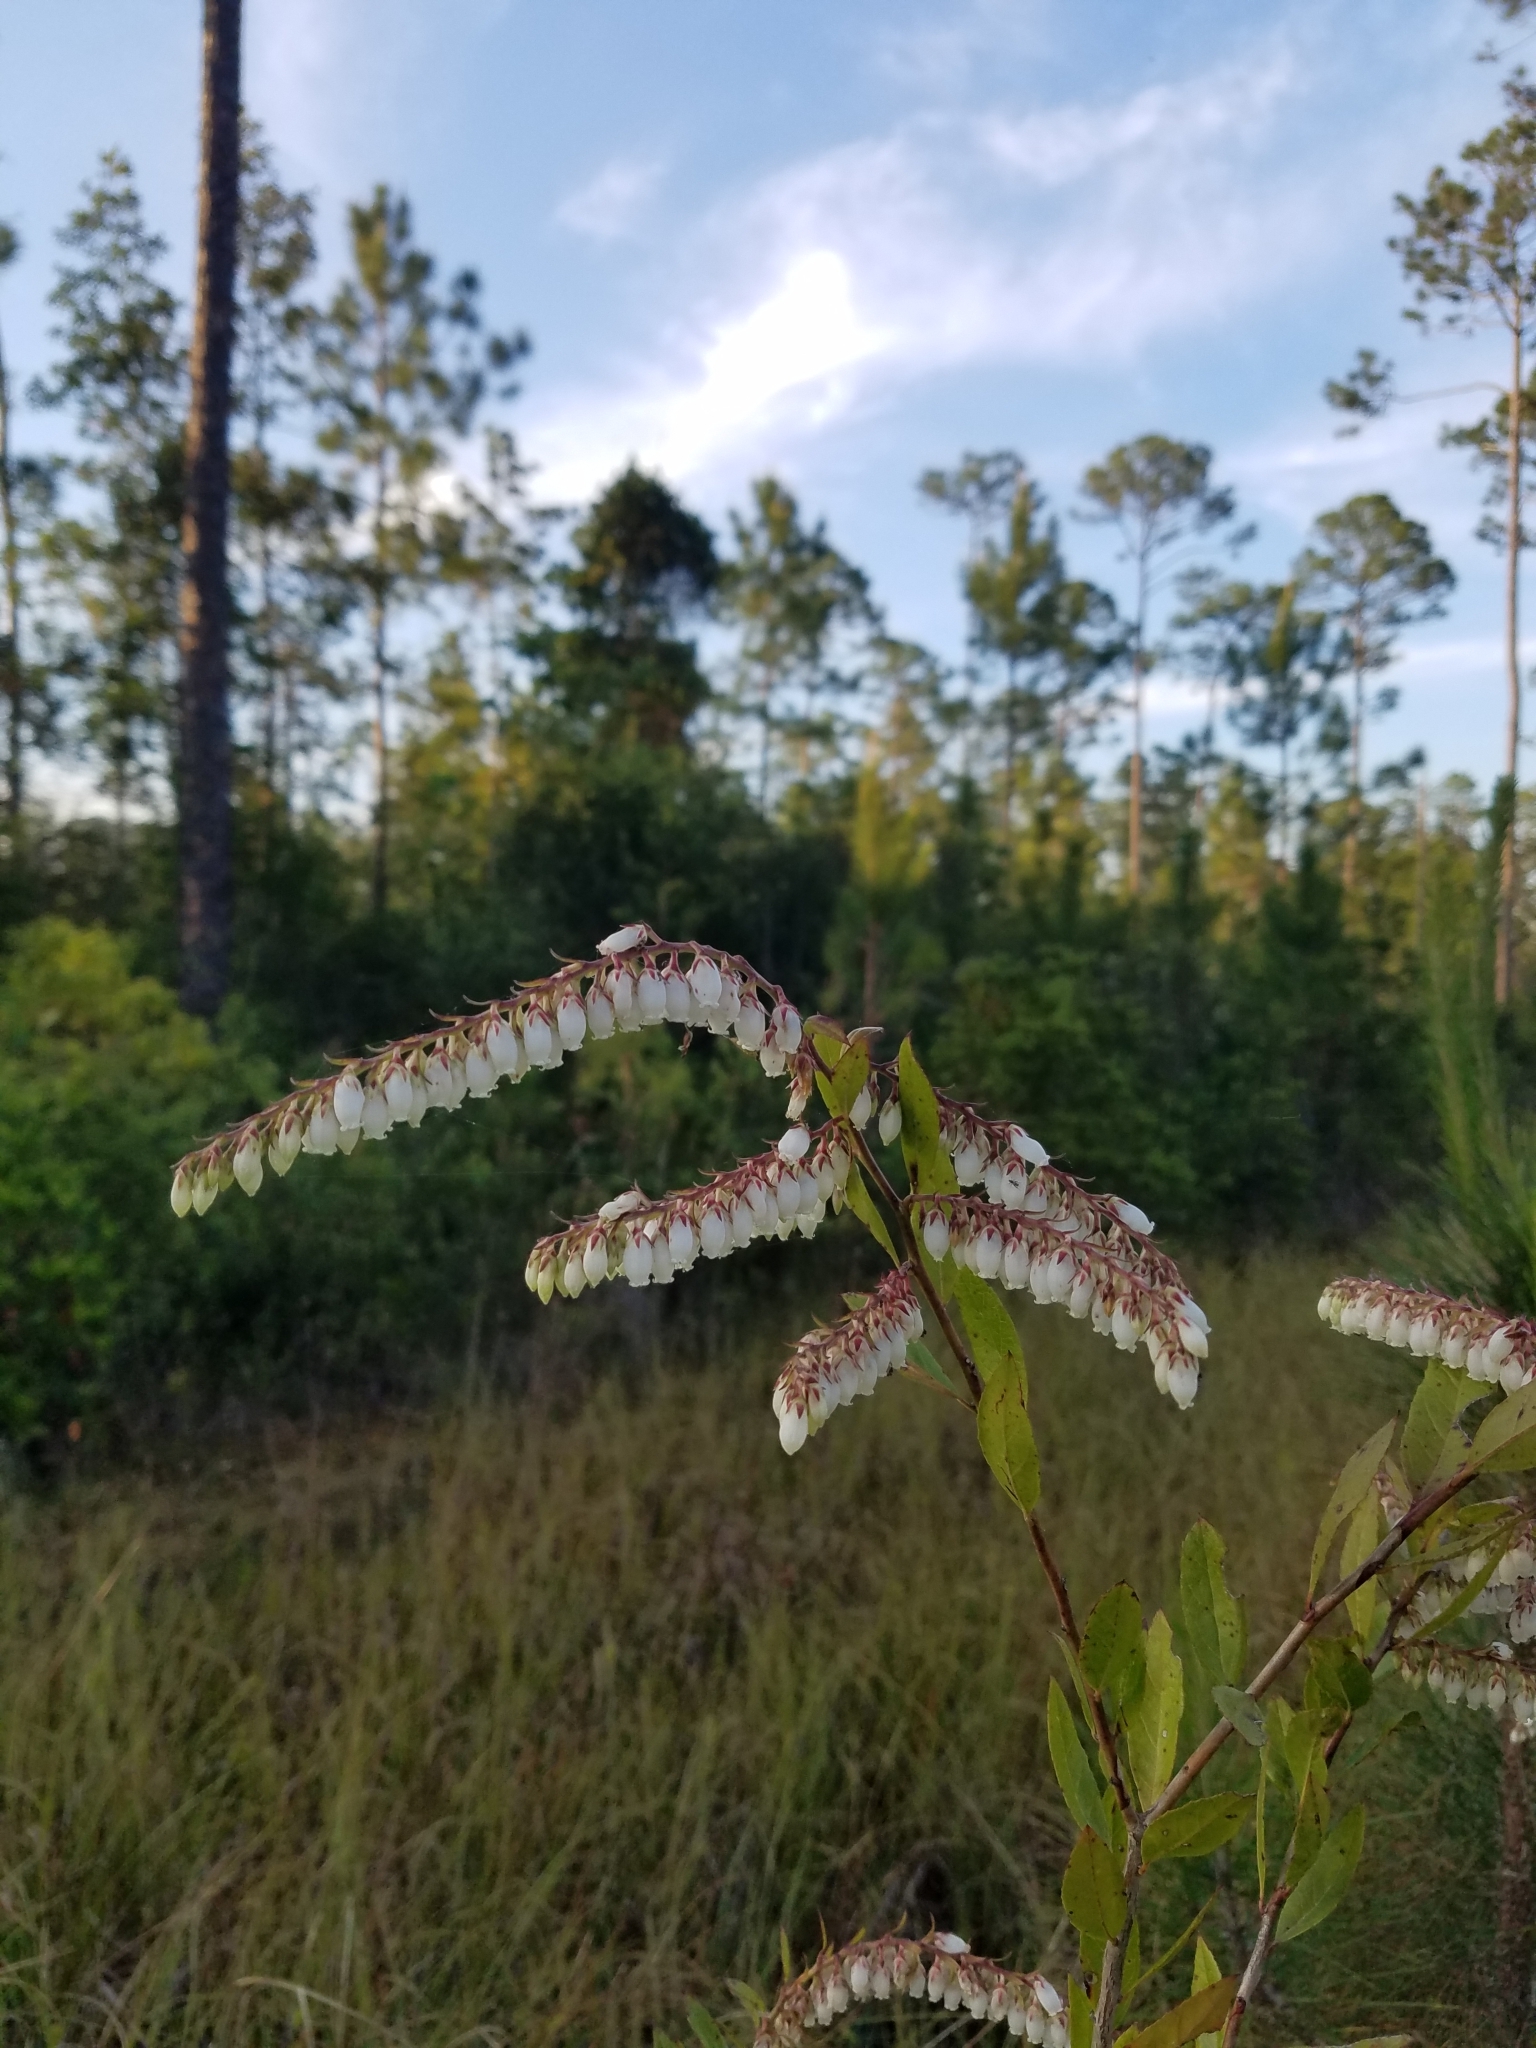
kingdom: Plantae
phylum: Tracheophyta
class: Magnoliopsida
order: Ericales
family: Ericaceae
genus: Eubotrys
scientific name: Eubotrys racemosa
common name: Fetterbush
